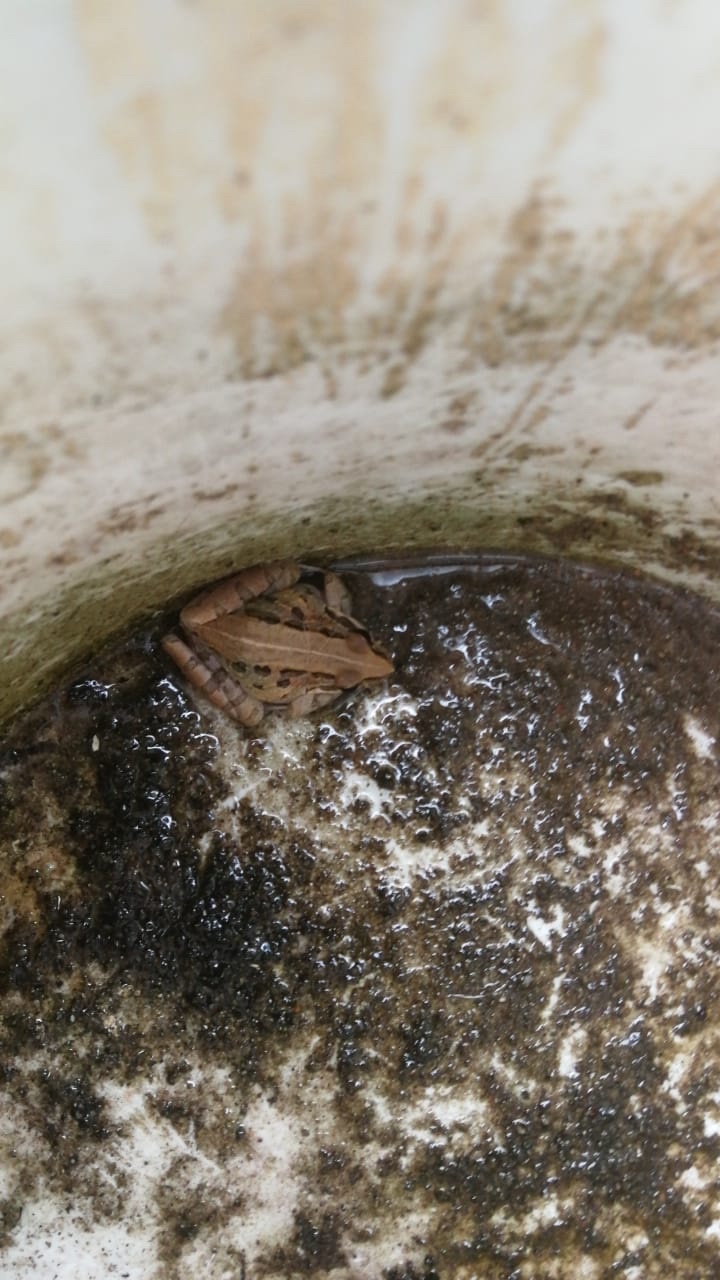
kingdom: Animalia
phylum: Chordata
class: Amphibia
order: Anura
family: Pyxicephalidae
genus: Strongylopus
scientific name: Strongylopus grayii
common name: Gray's stream frog
